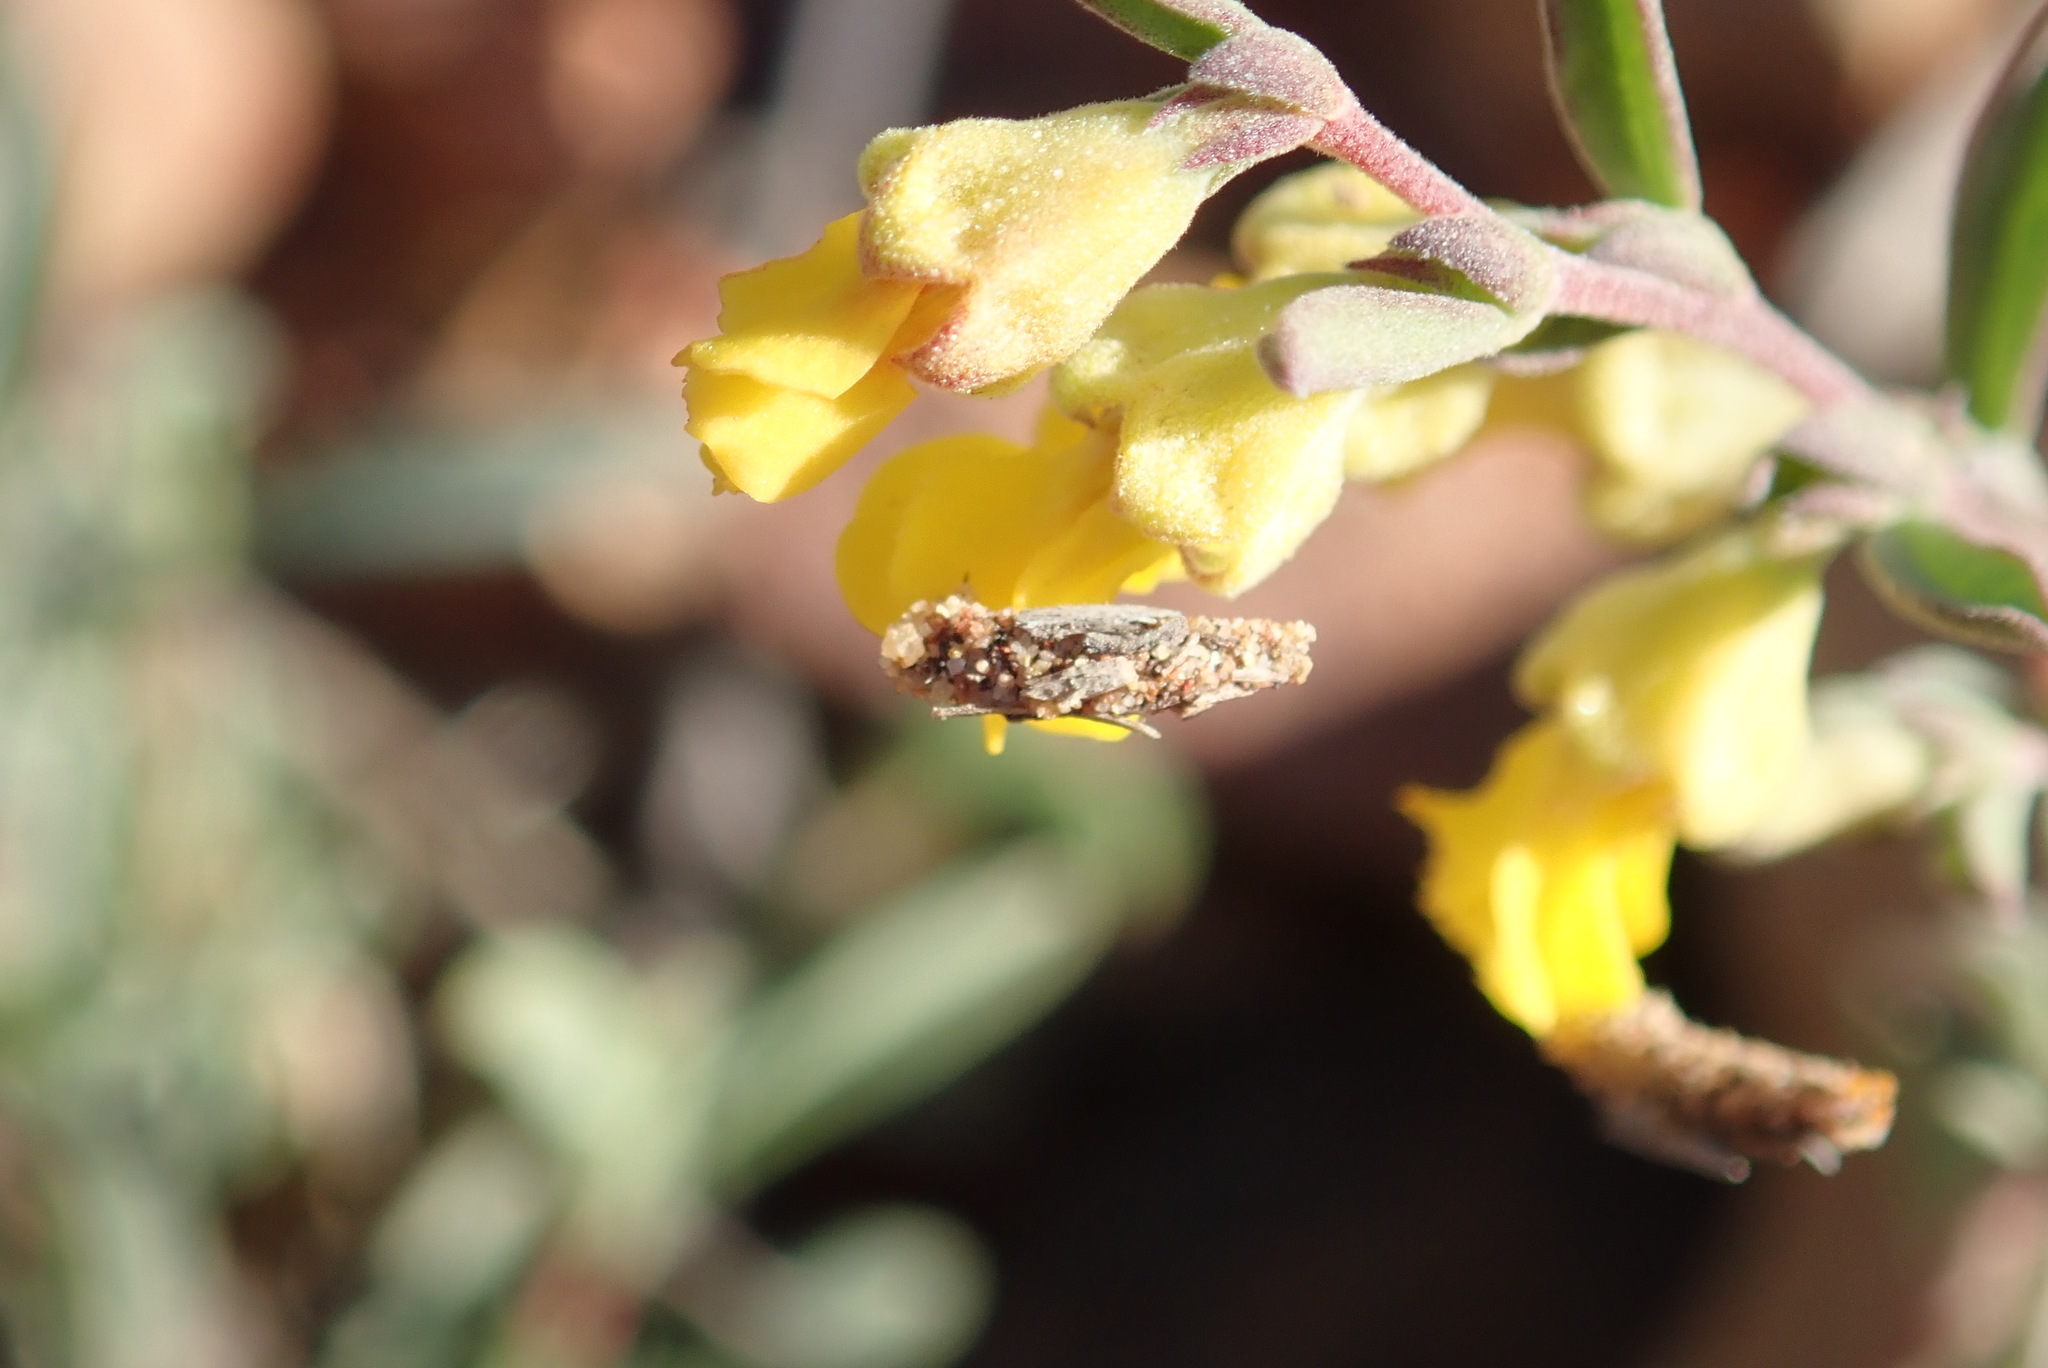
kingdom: Plantae
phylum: Tracheophyta
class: Magnoliopsida
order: Malvales
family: Malvaceae
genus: Hermannia
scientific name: Hermannia diversistipula
